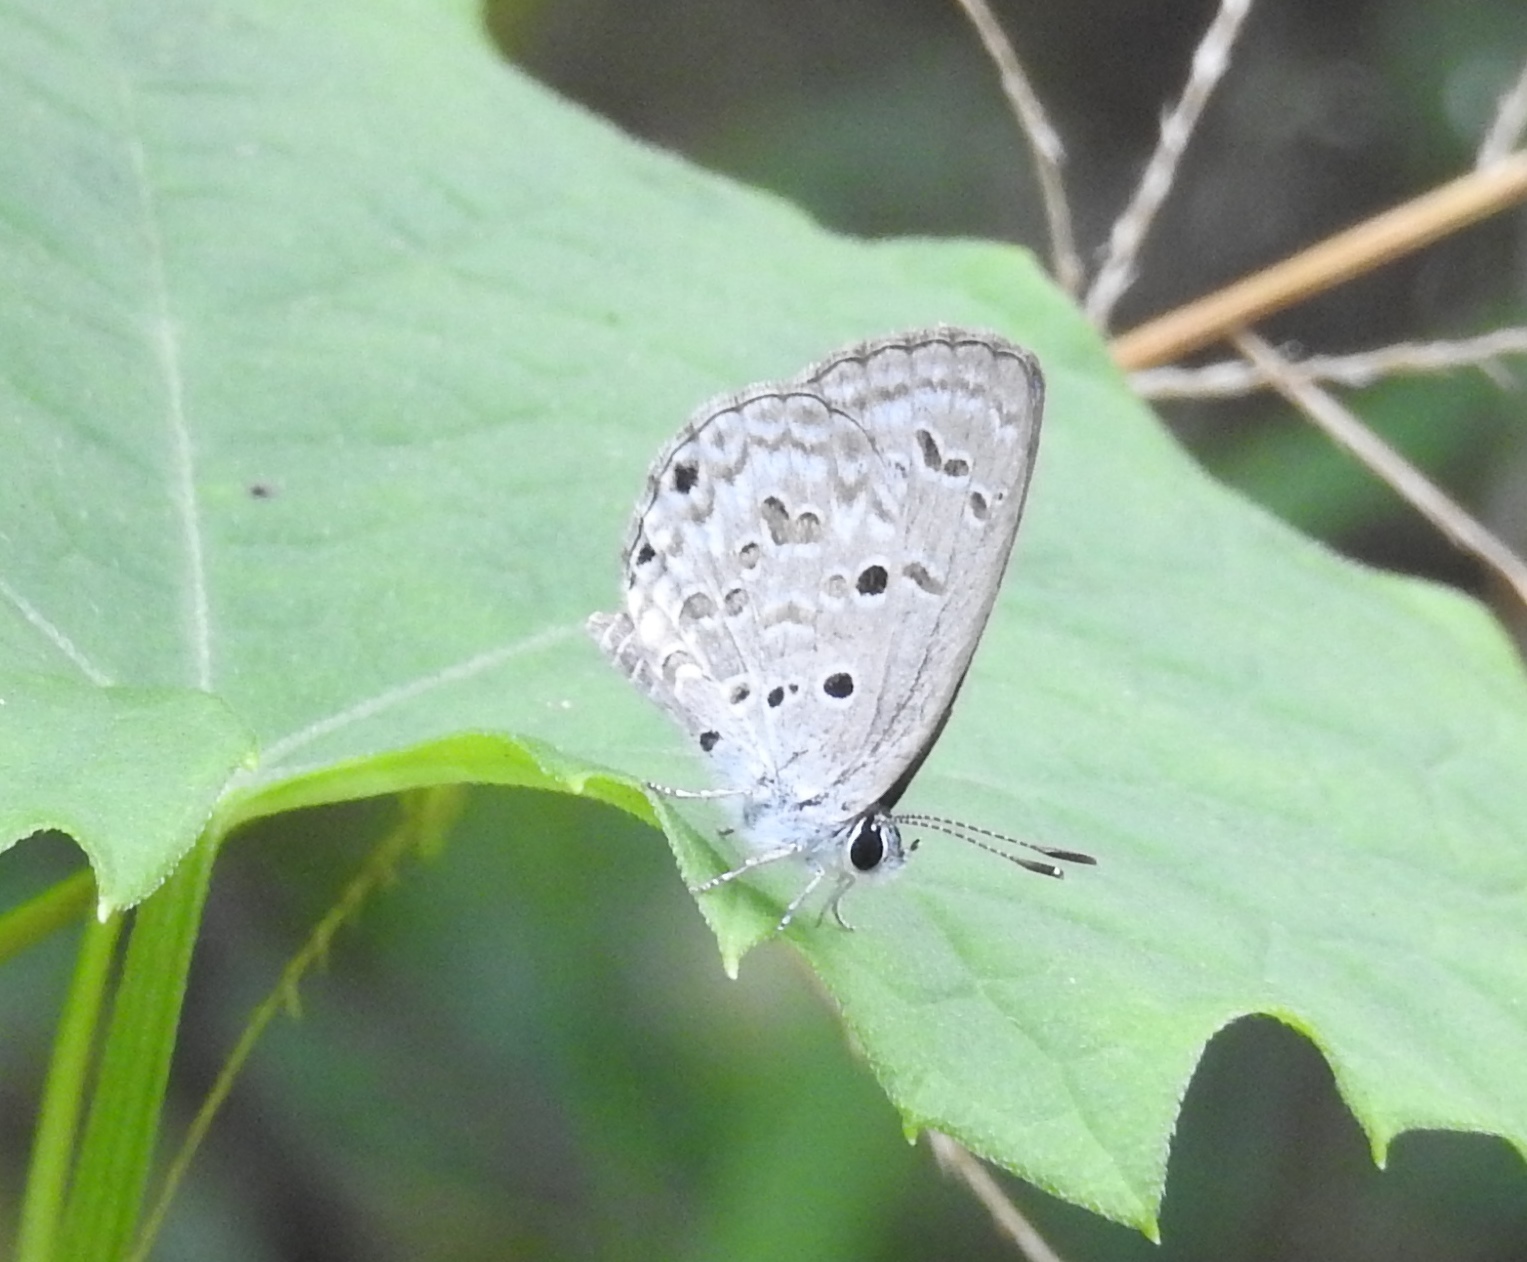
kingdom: Animalia
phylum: Arthropoda
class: Insecta
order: Lepidoptera
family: Lycaenidae
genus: Chilades
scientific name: Chilades laius
